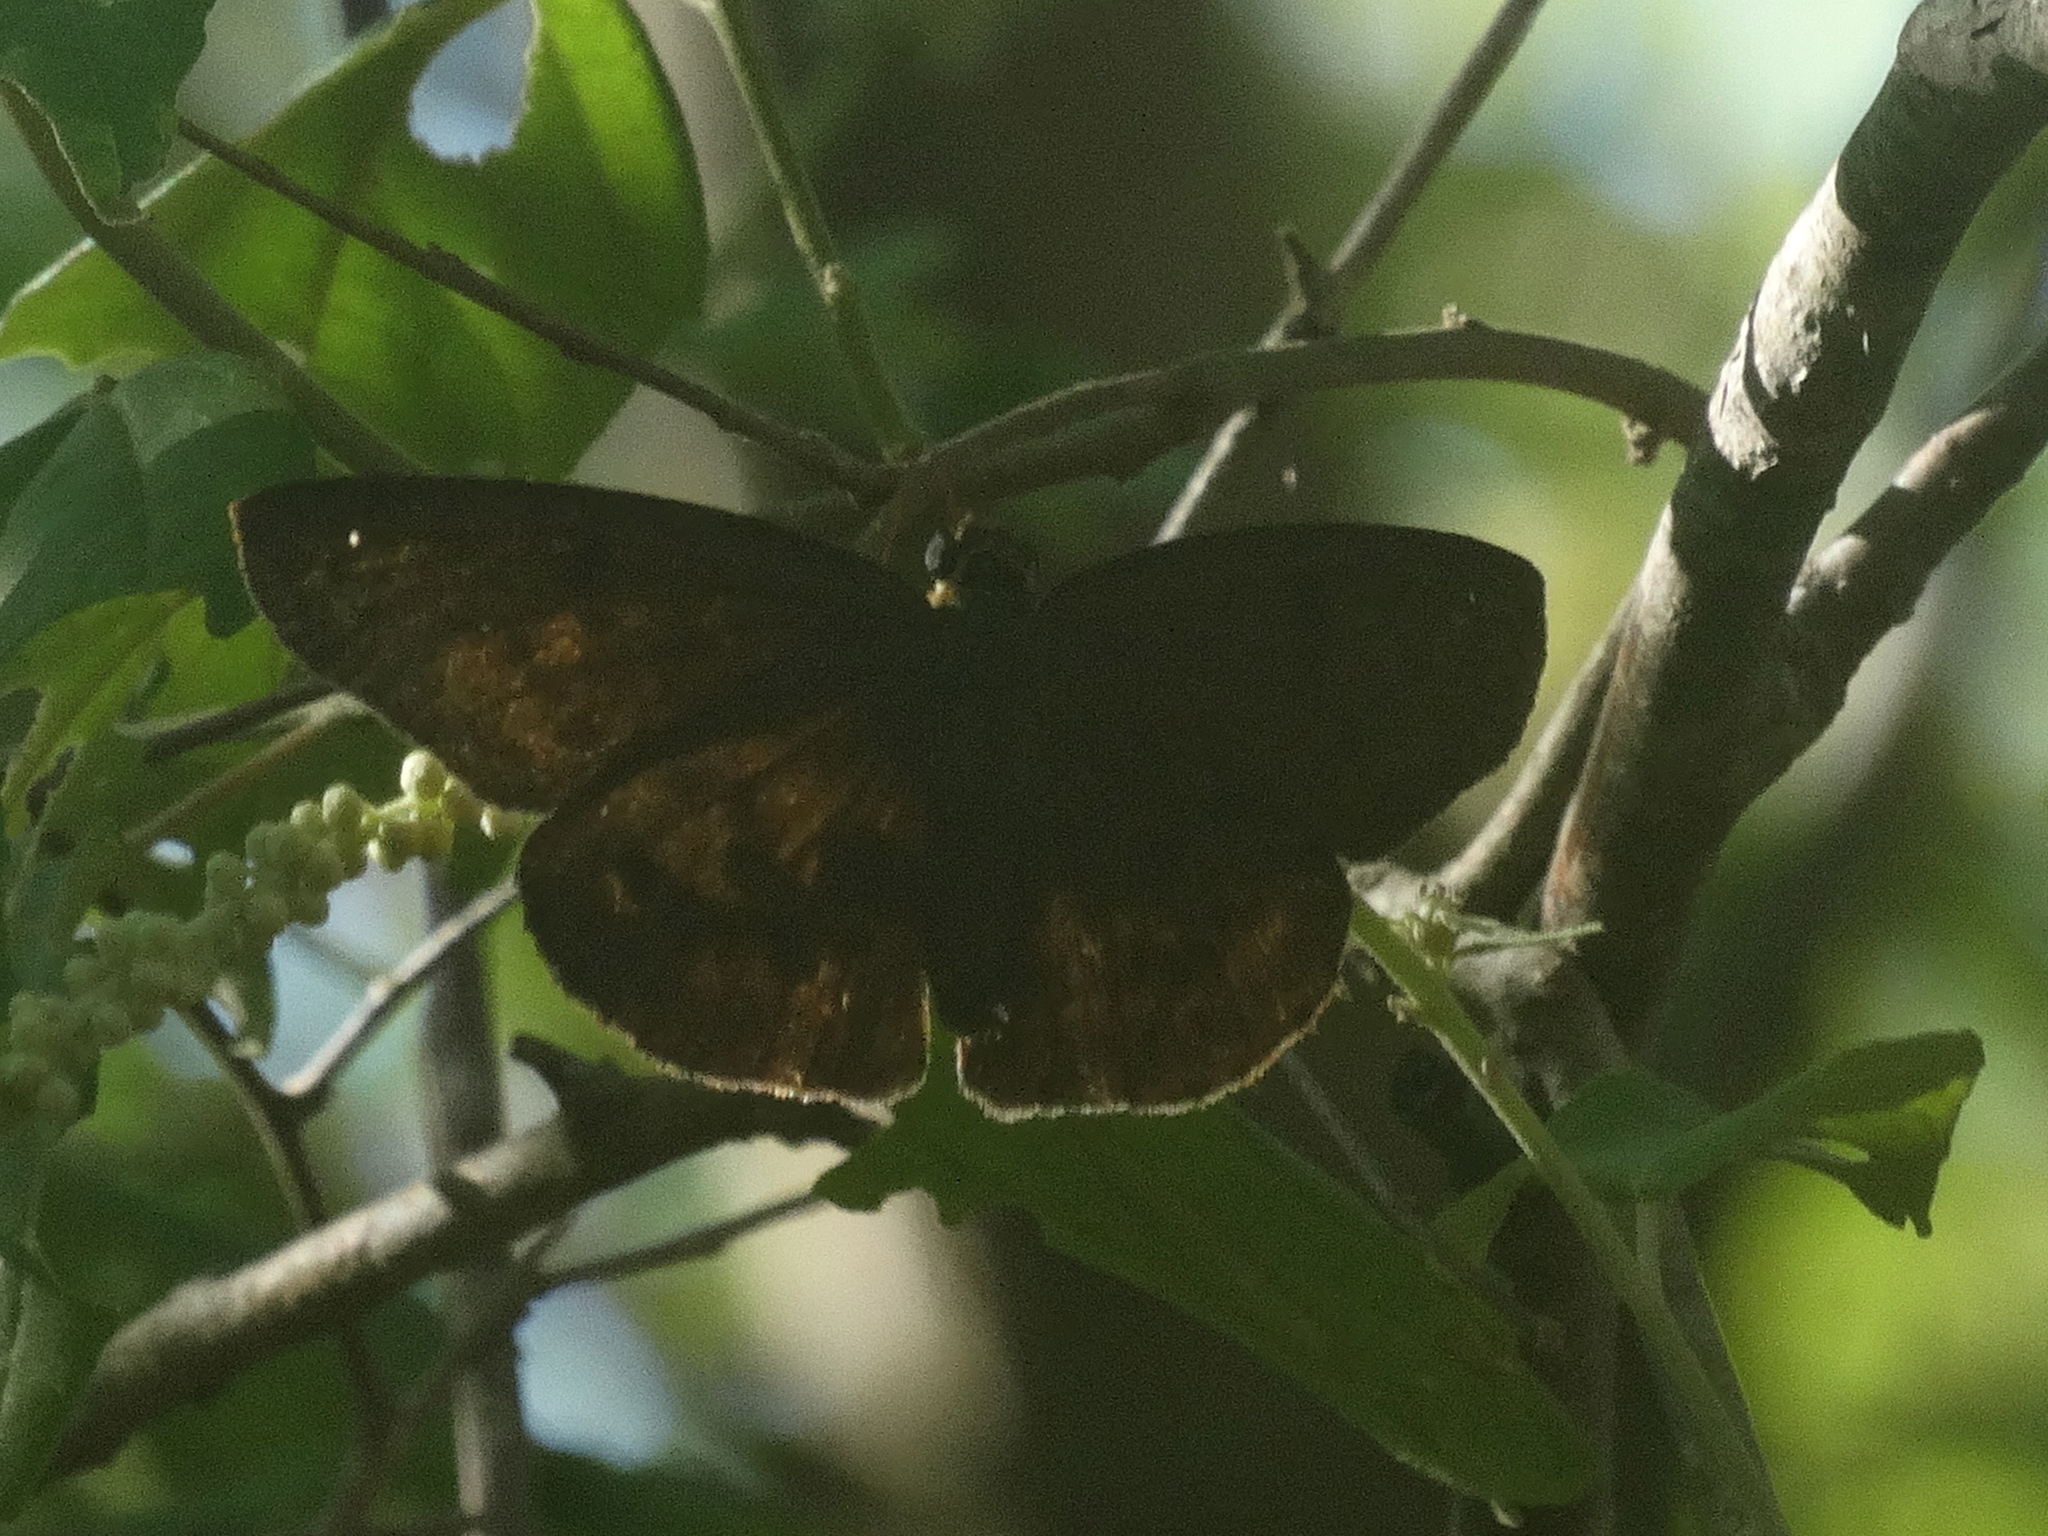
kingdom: Animalia
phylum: Arthropoda
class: Insecta
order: Lepidoptera
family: Hesperiidae
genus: Grais
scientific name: Grais stigmaticus
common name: Hermit skipper
